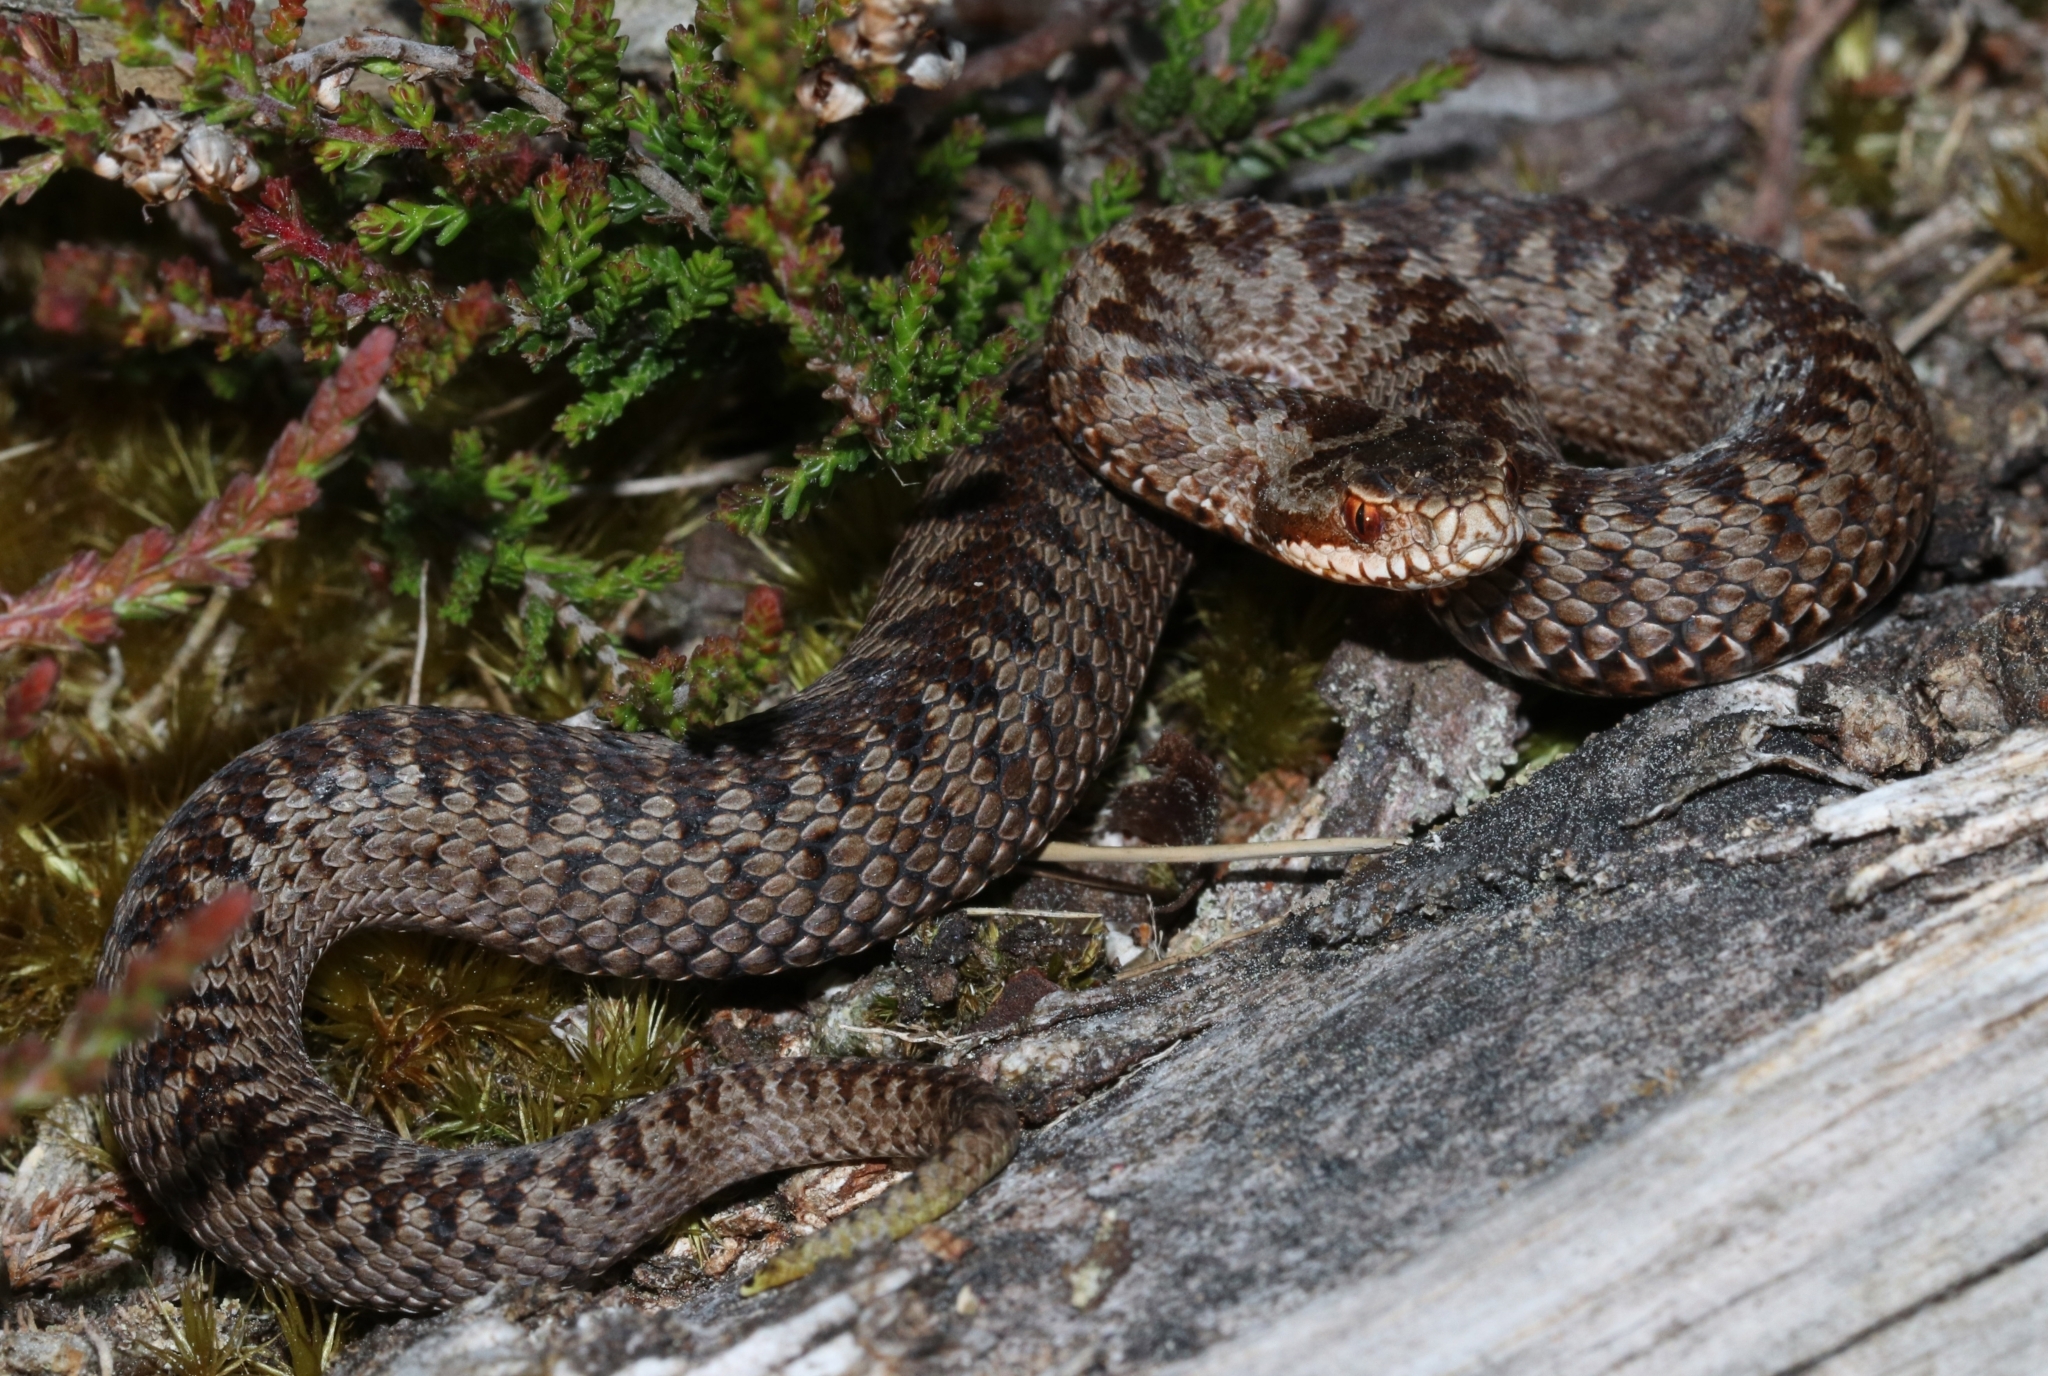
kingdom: Animalia
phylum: Chordata
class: Squamata
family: Viperidae
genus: Vipera
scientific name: Vipera berus
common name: Adder
